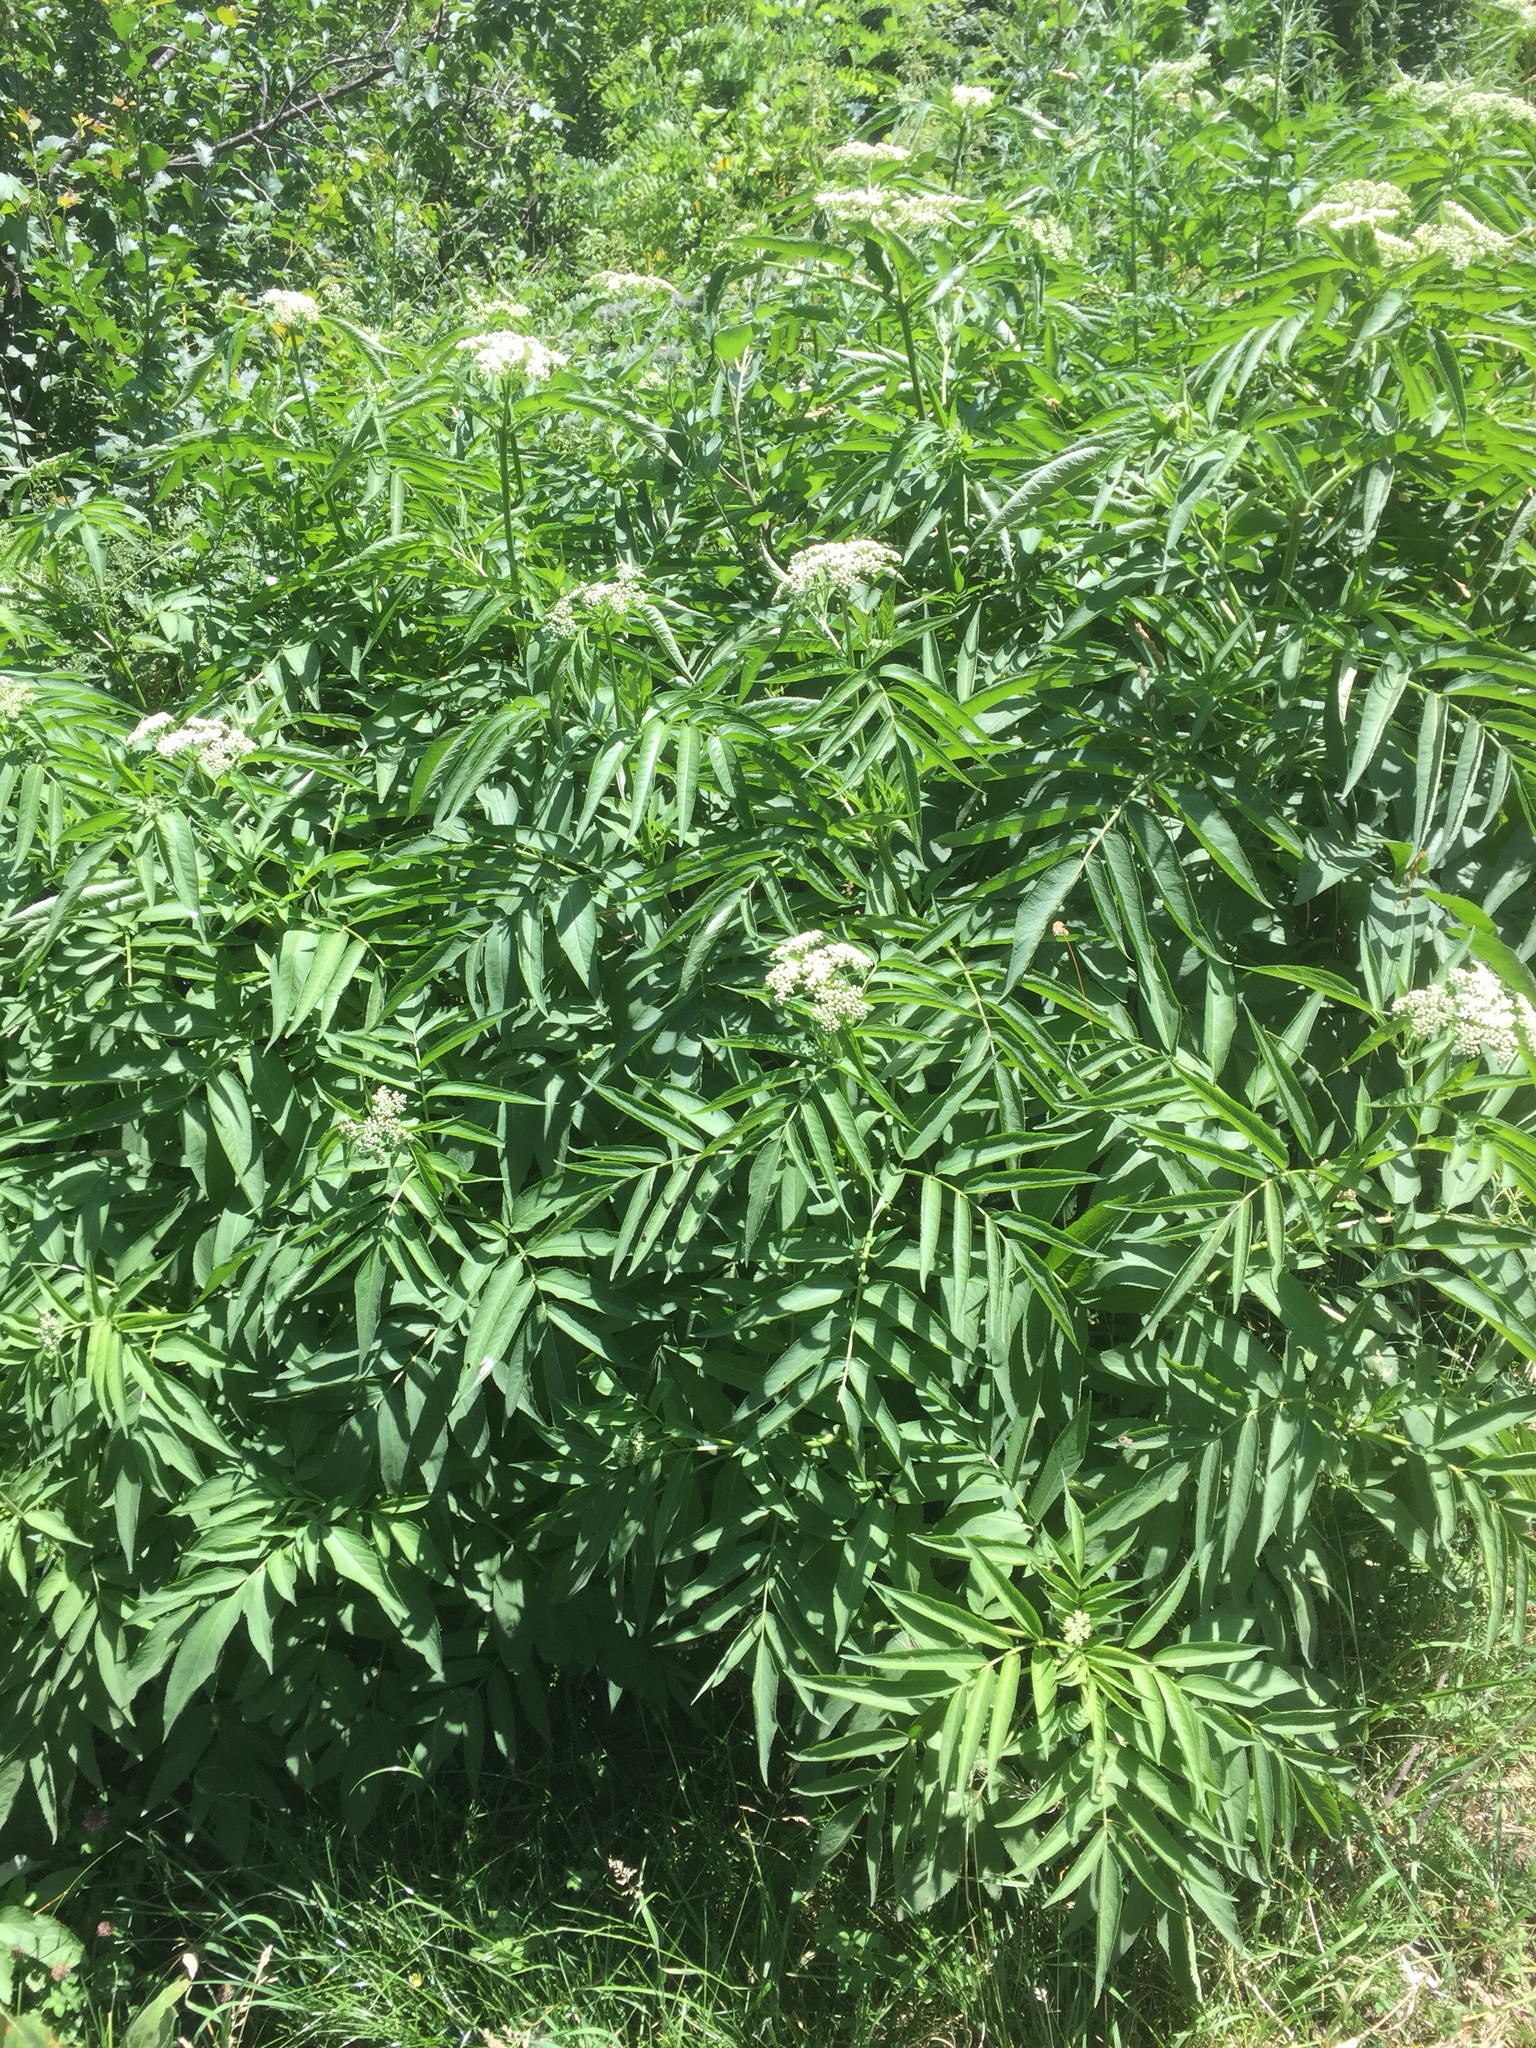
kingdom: Plantae
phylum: Tracheophyta
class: Magnoliopsida
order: Dipsacales
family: Viburnaceae
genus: Sambucus
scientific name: Sambucus ebulus
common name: Dwarf elder
